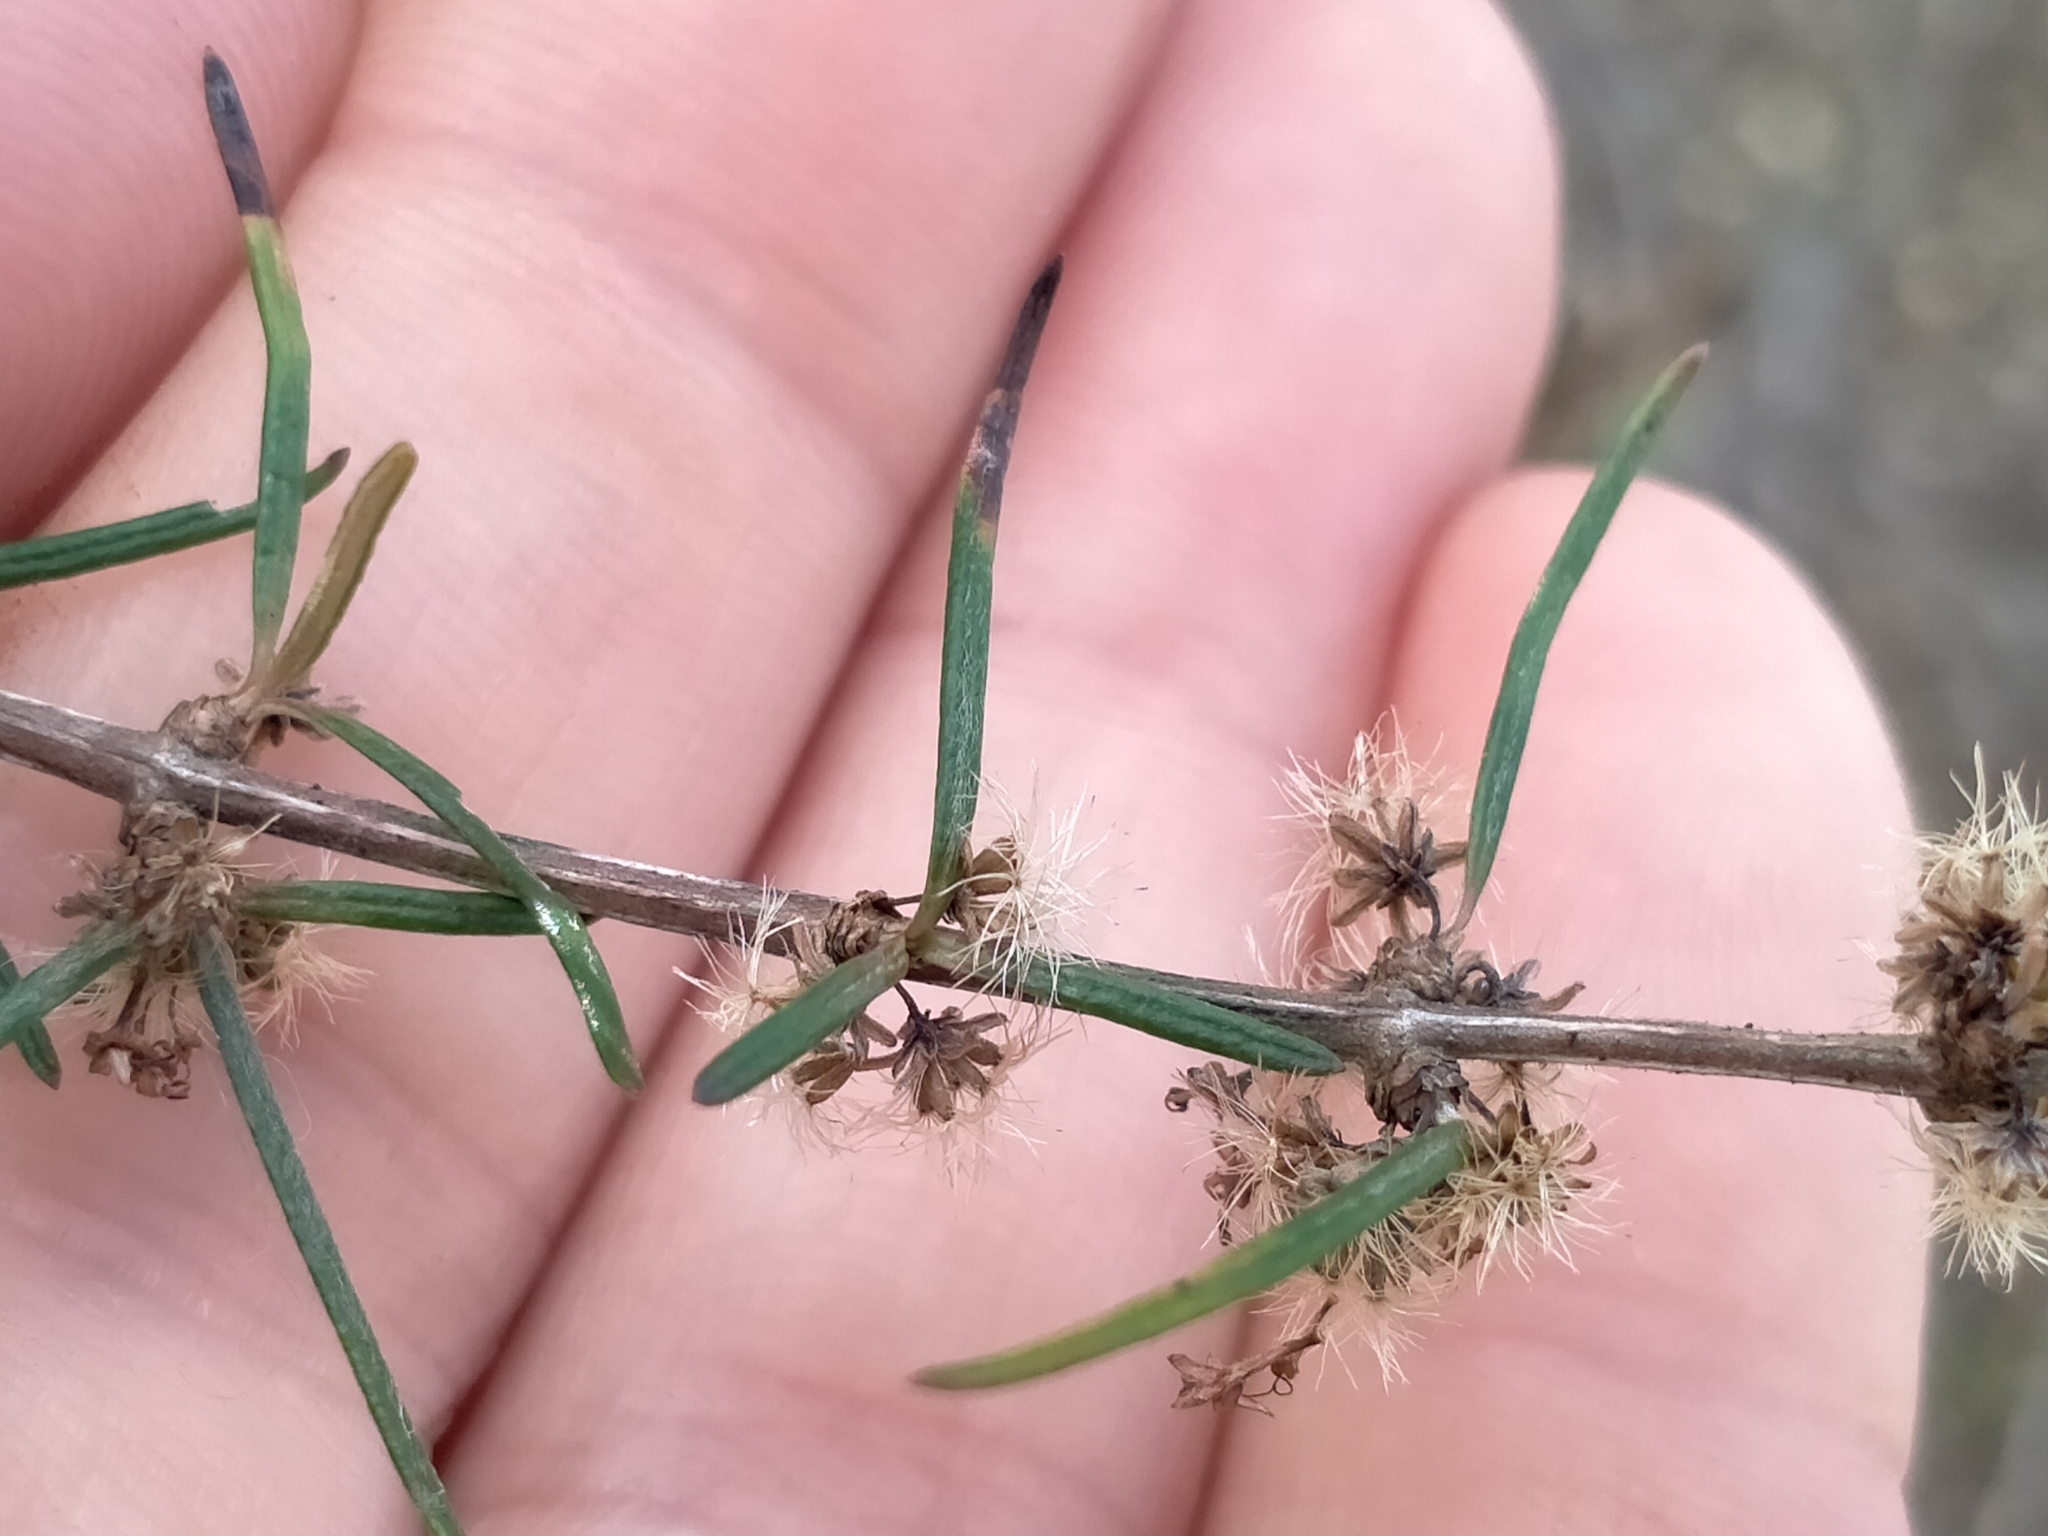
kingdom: Plantae
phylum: Tracheophyta
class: Magnoliopsida
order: Asterales
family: Asteraceae
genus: Olearia
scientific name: Olearia lineata
